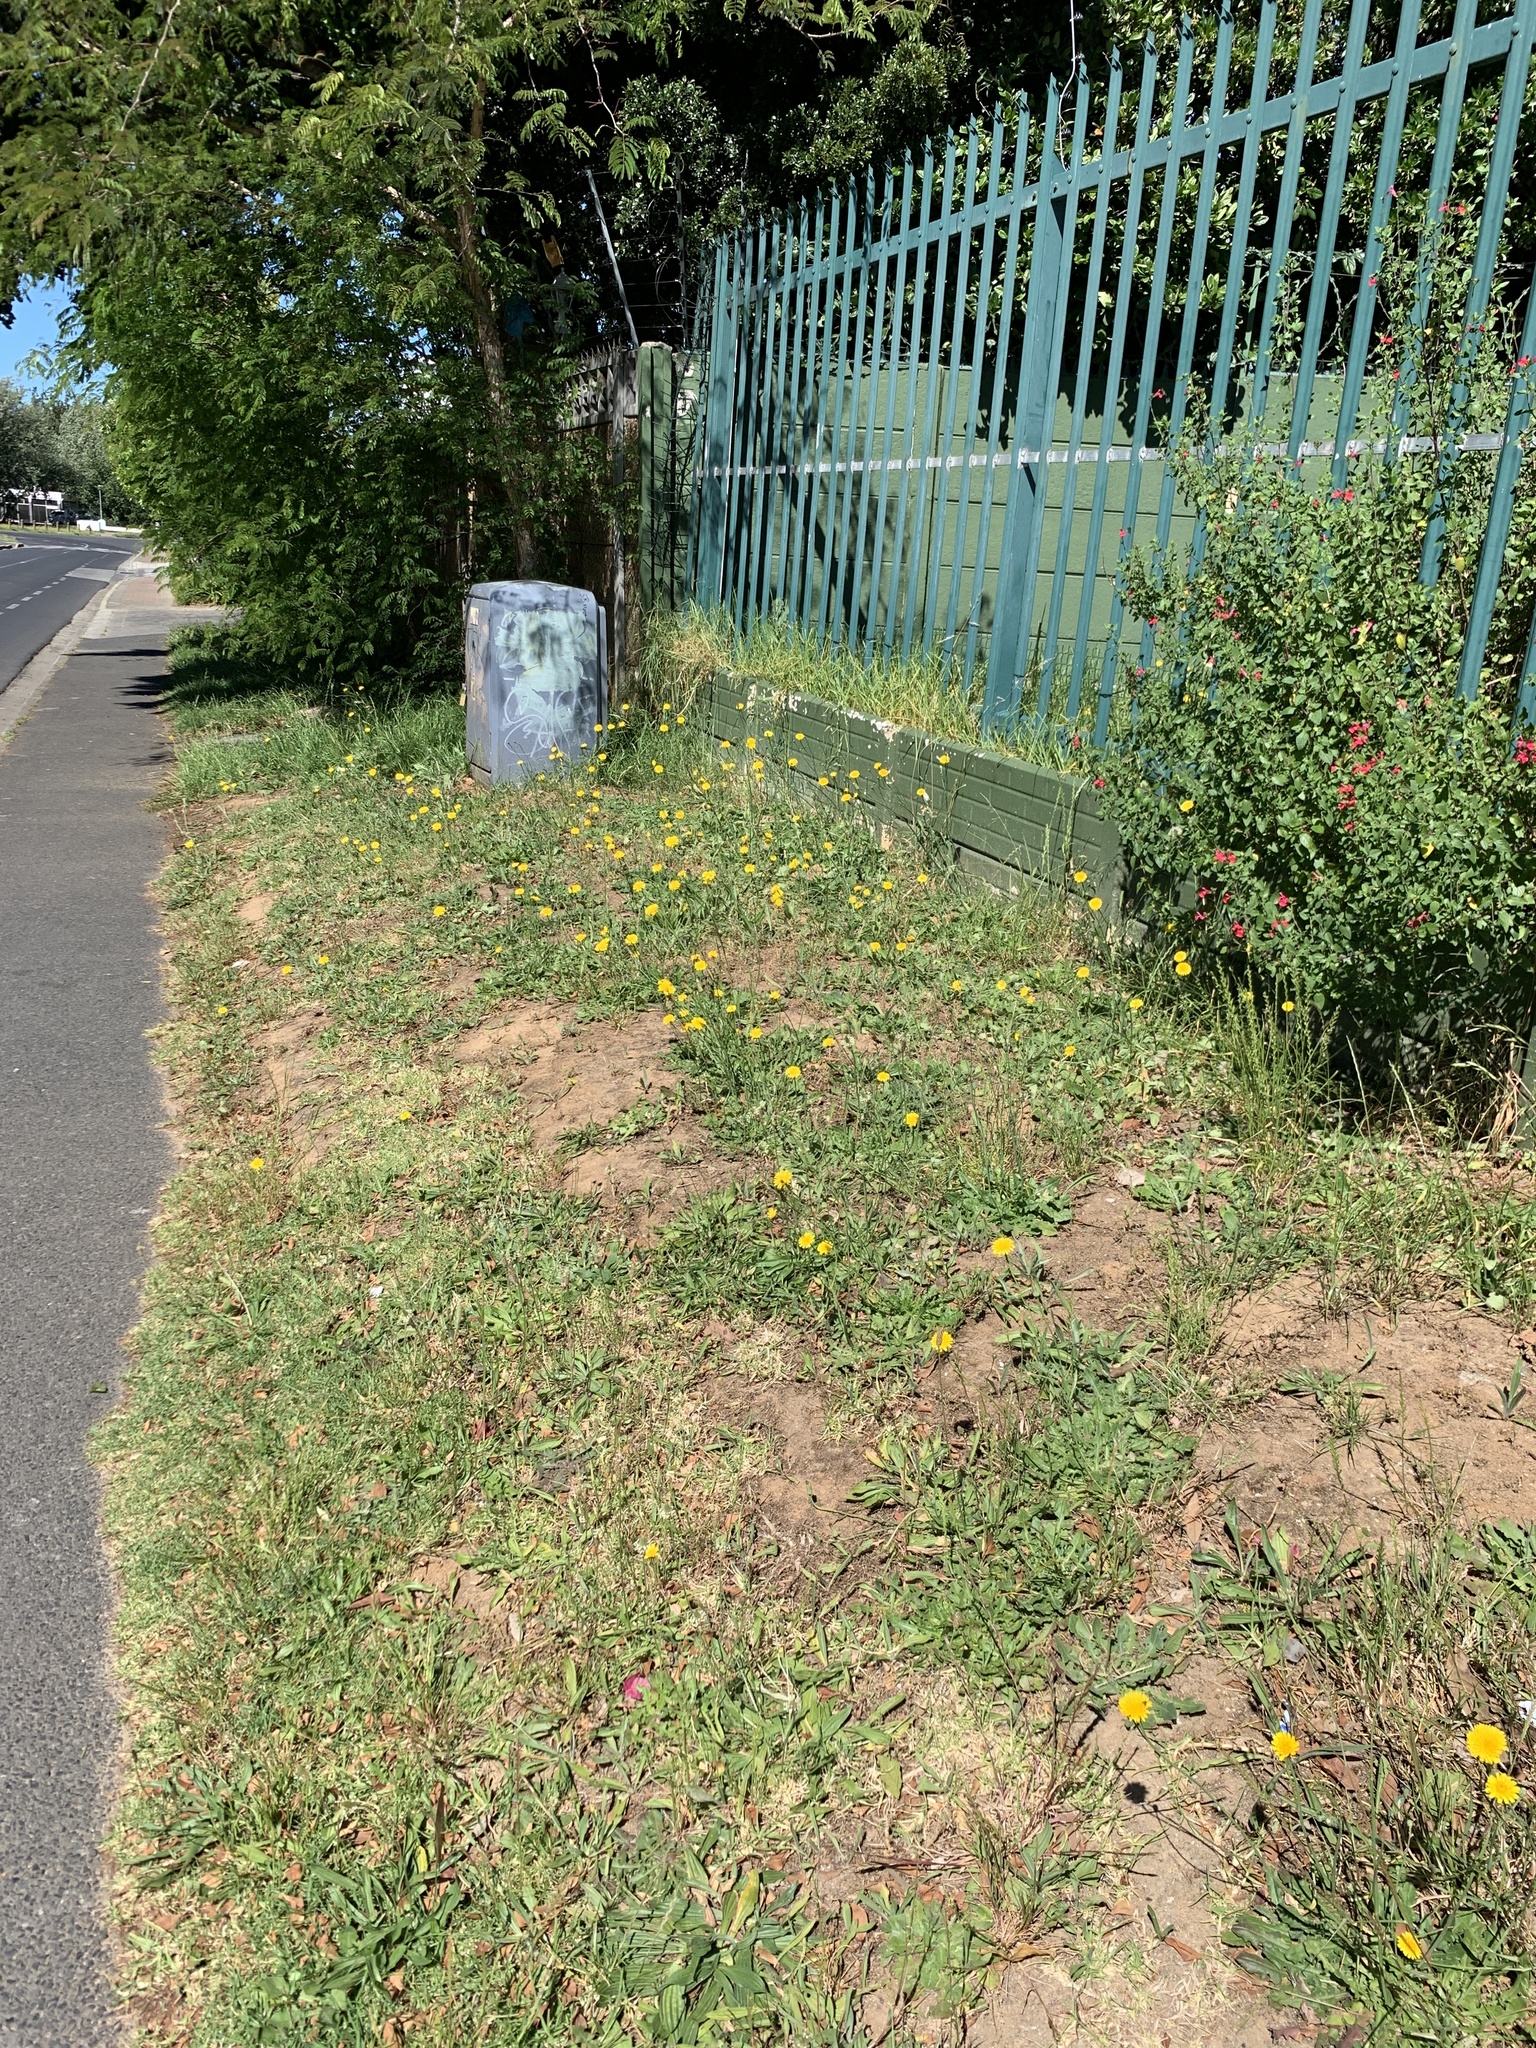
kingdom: Plantae
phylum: Tracheophyta
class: Magnoliopsida
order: Asterales
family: Asteraceae
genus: Hypochaeris
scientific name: Hypochaeris radicata
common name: Flatweed
